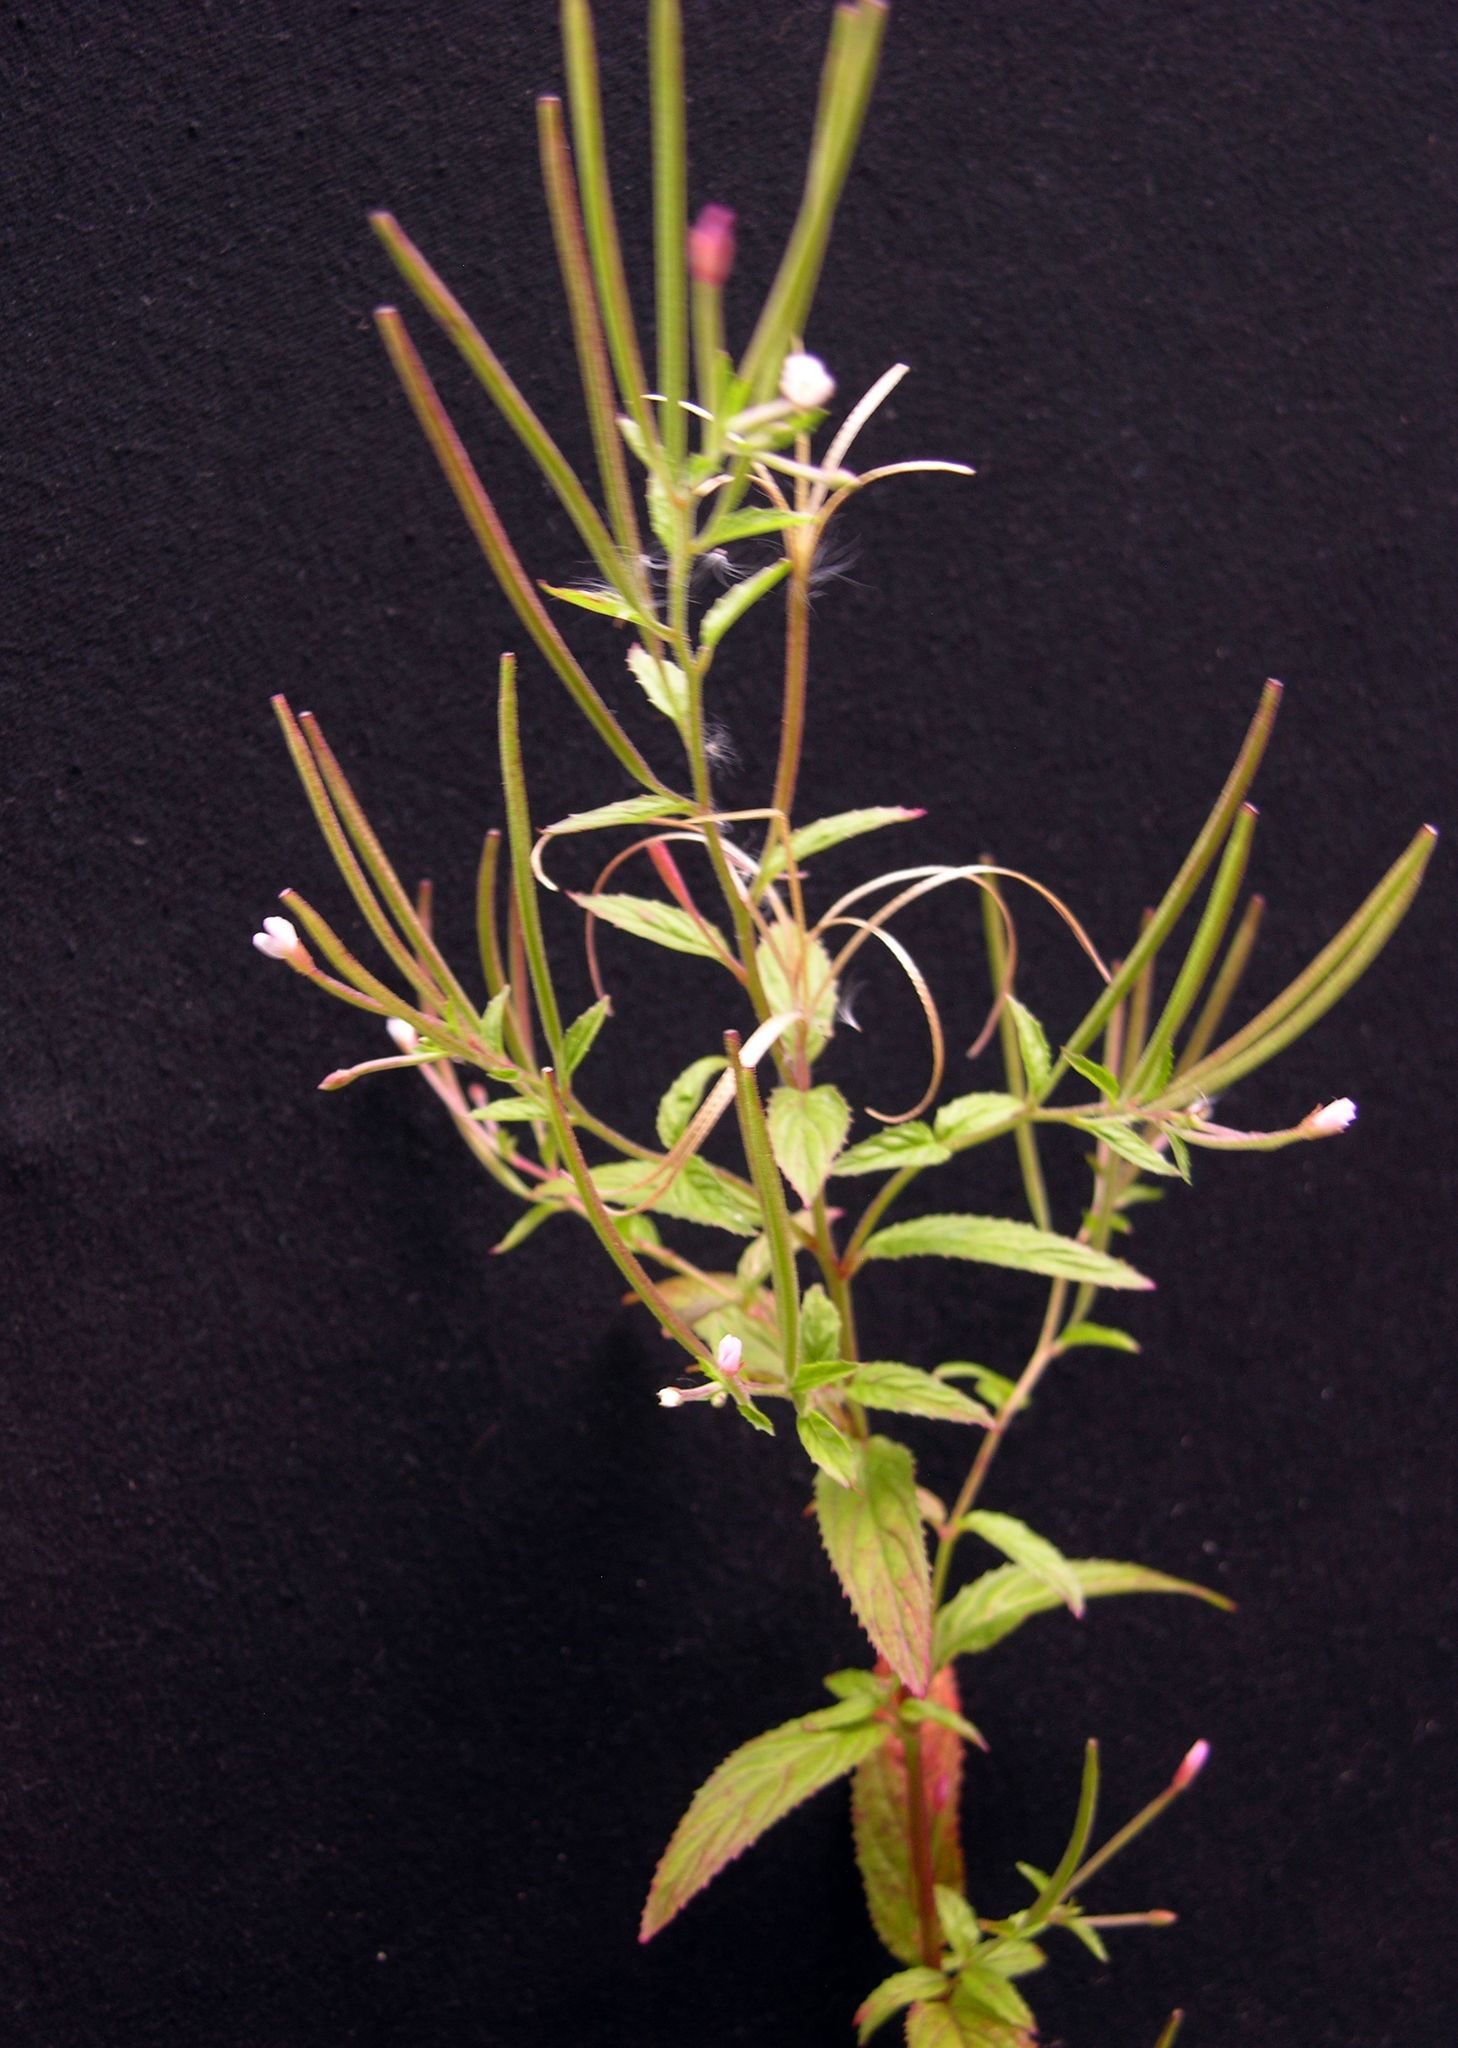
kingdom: Plantae
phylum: Tracheophyta
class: Magnoliopsida
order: Myrtales
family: Onagraceae
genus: Epilobium
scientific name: Epilobium tetragonum
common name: Square-stemmed willowherb
